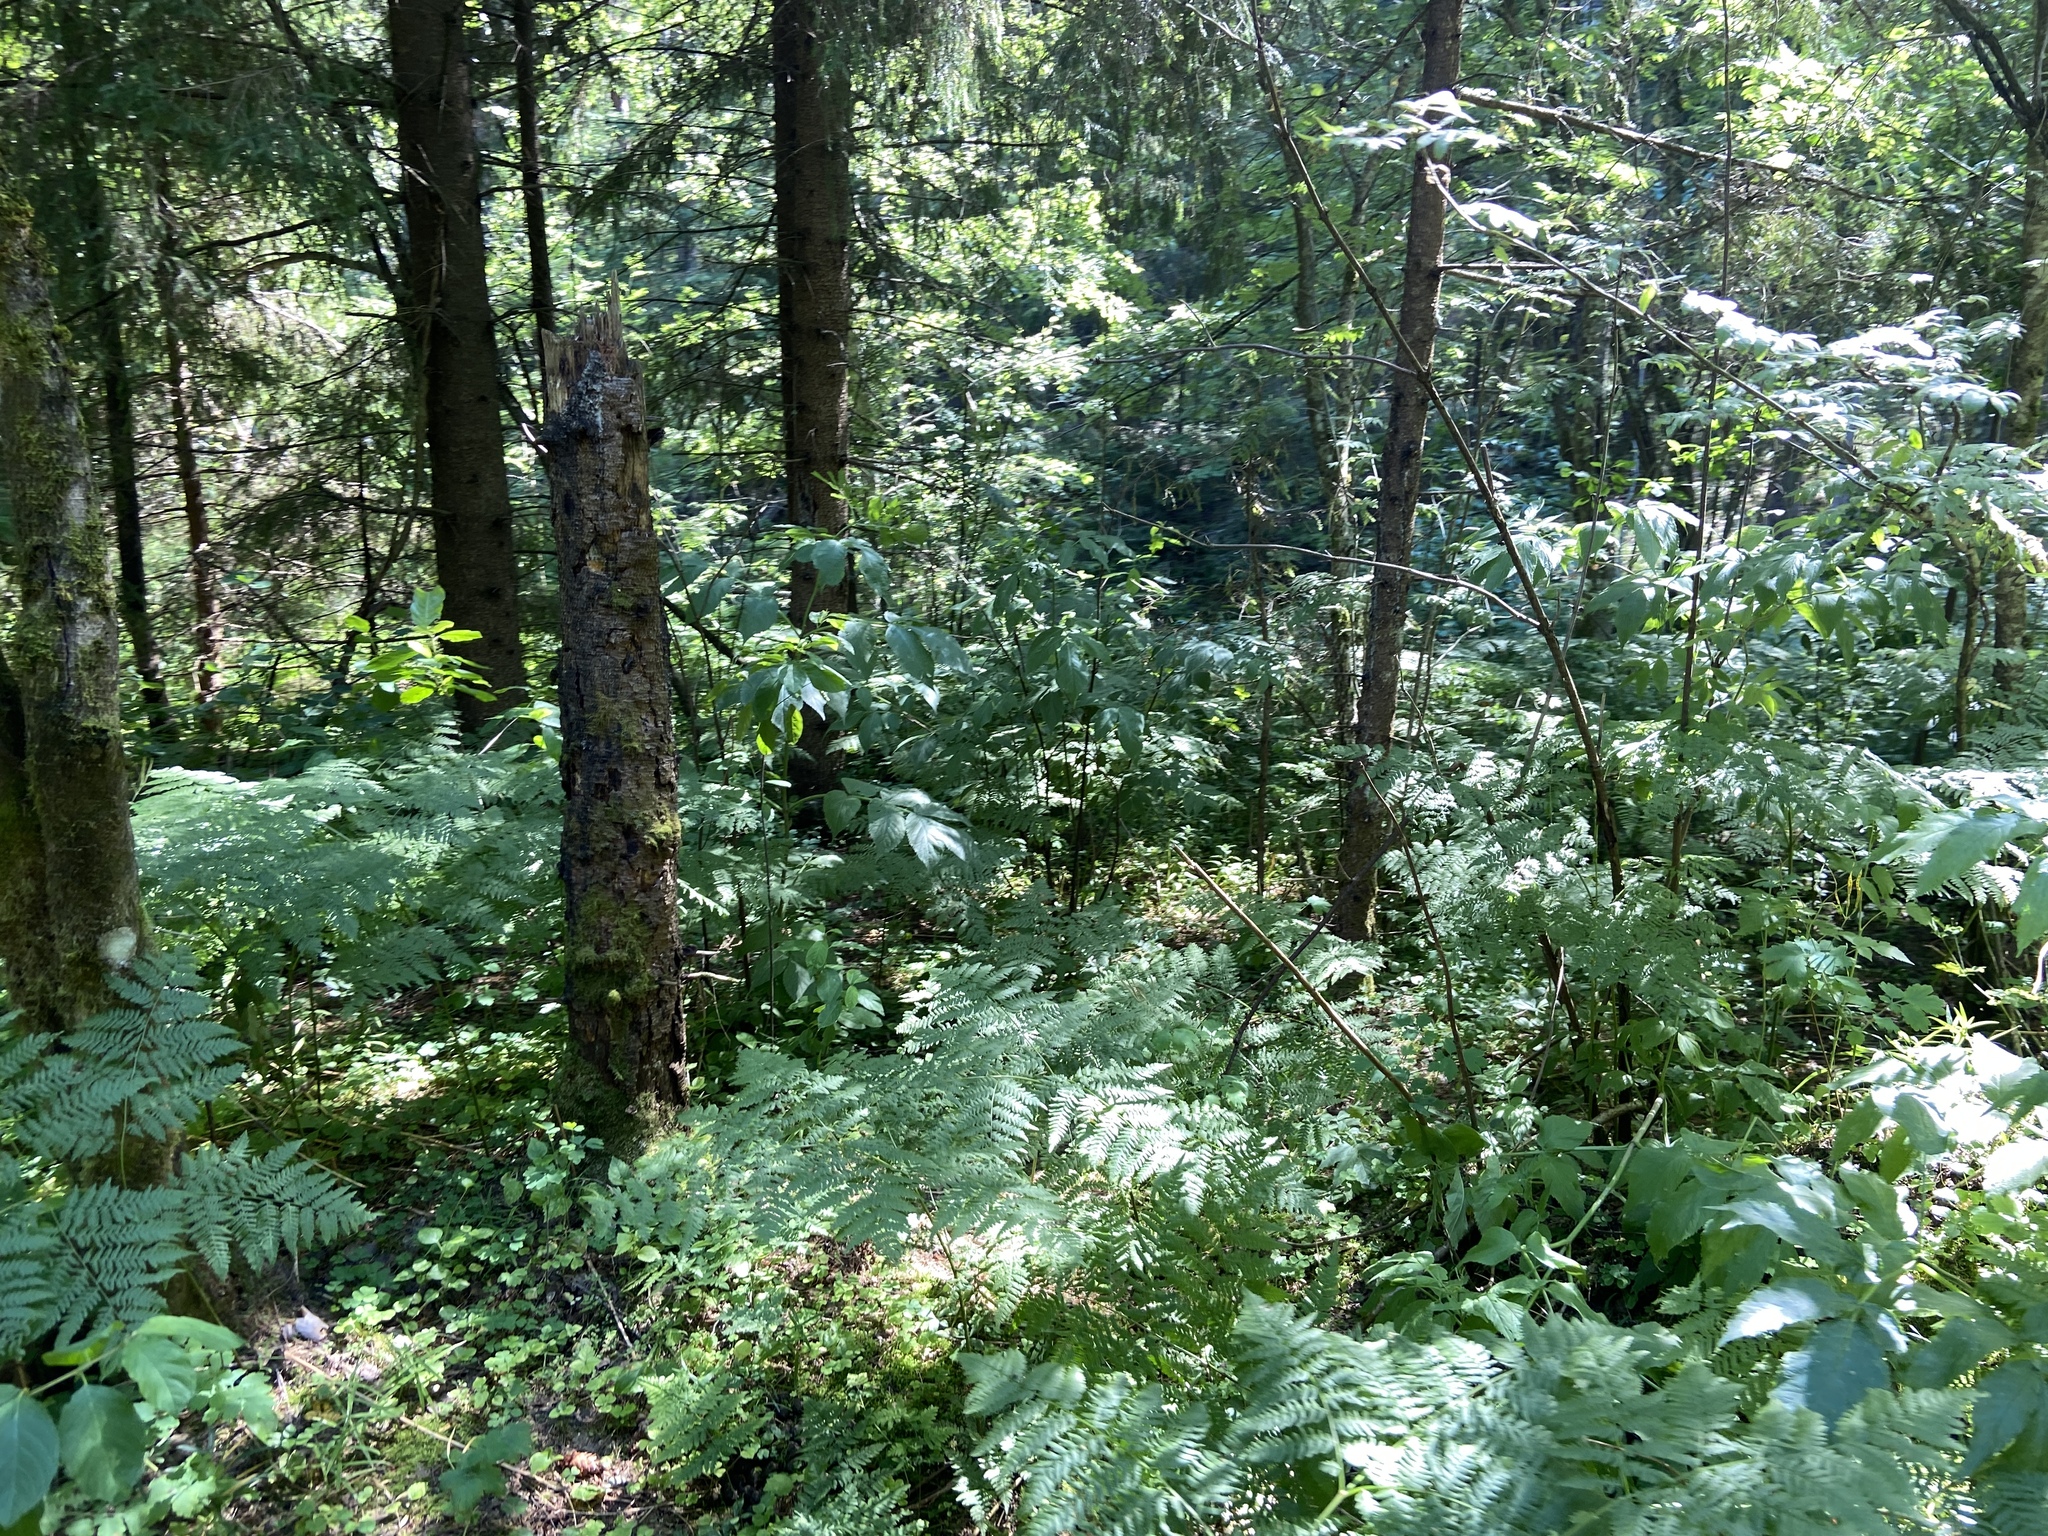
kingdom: Plantae
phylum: Tracheophyta
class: Polypodiopsida
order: Polypodiales
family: Dennstaedtiaceae
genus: Pteridium
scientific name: Pteridium aquilinum
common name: Bracken
